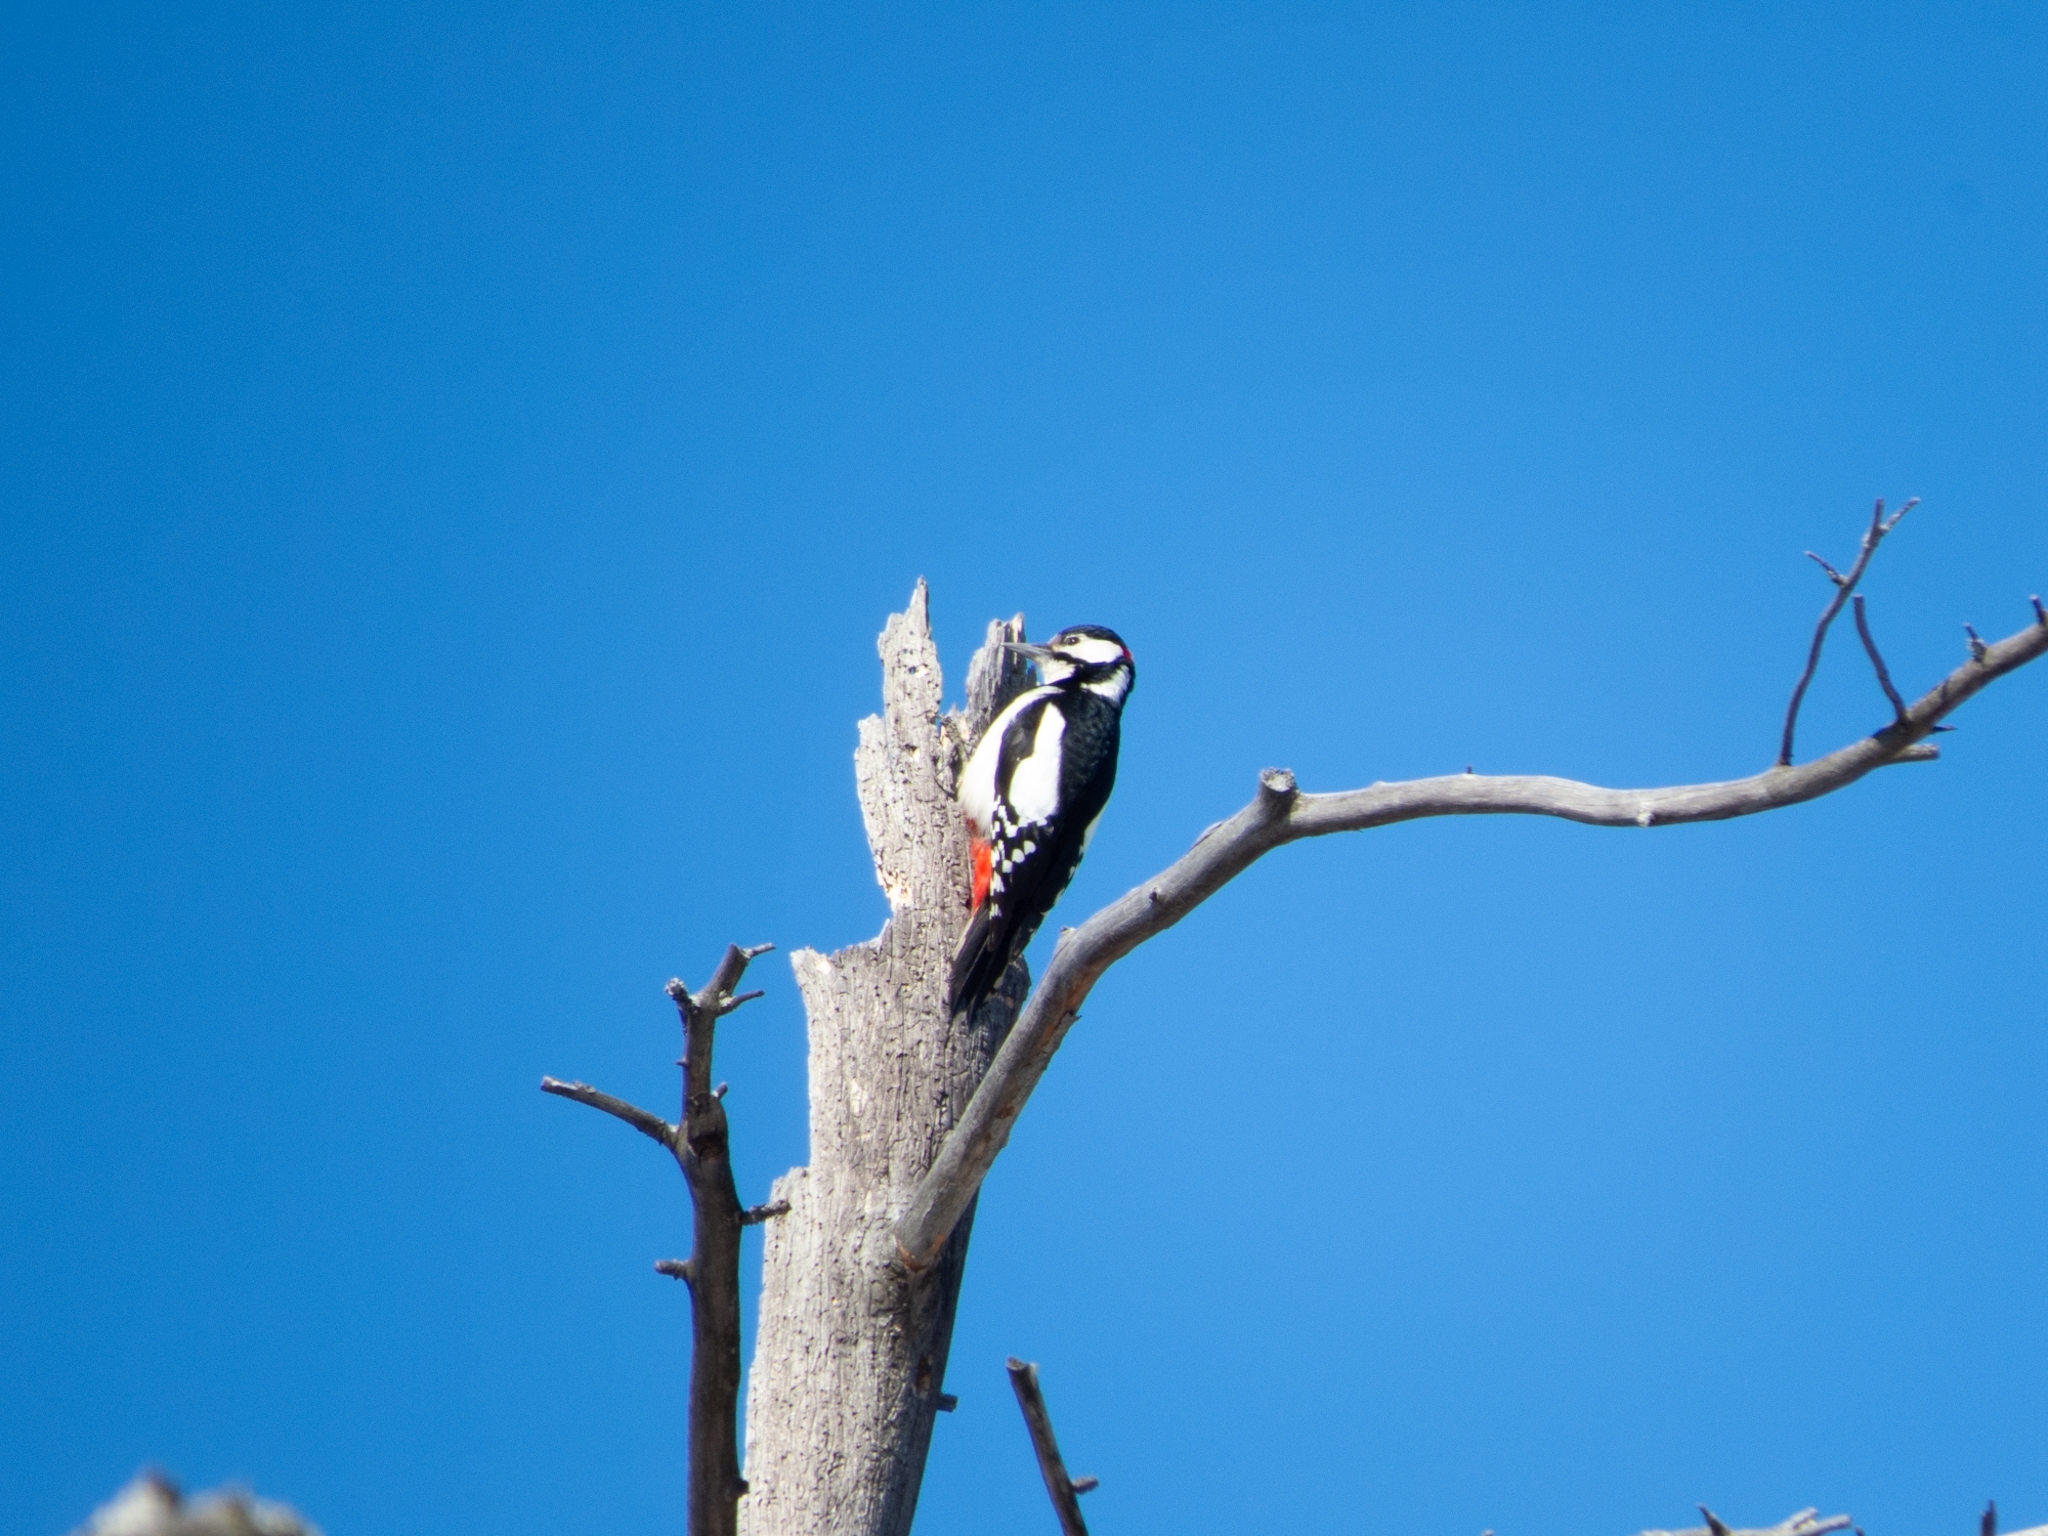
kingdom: Animalia
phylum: Chordata
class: Aves
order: Piciformes
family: Picidae
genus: Dendrocopos
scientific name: Dendrocopos major
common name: Great spotted woodpecker
